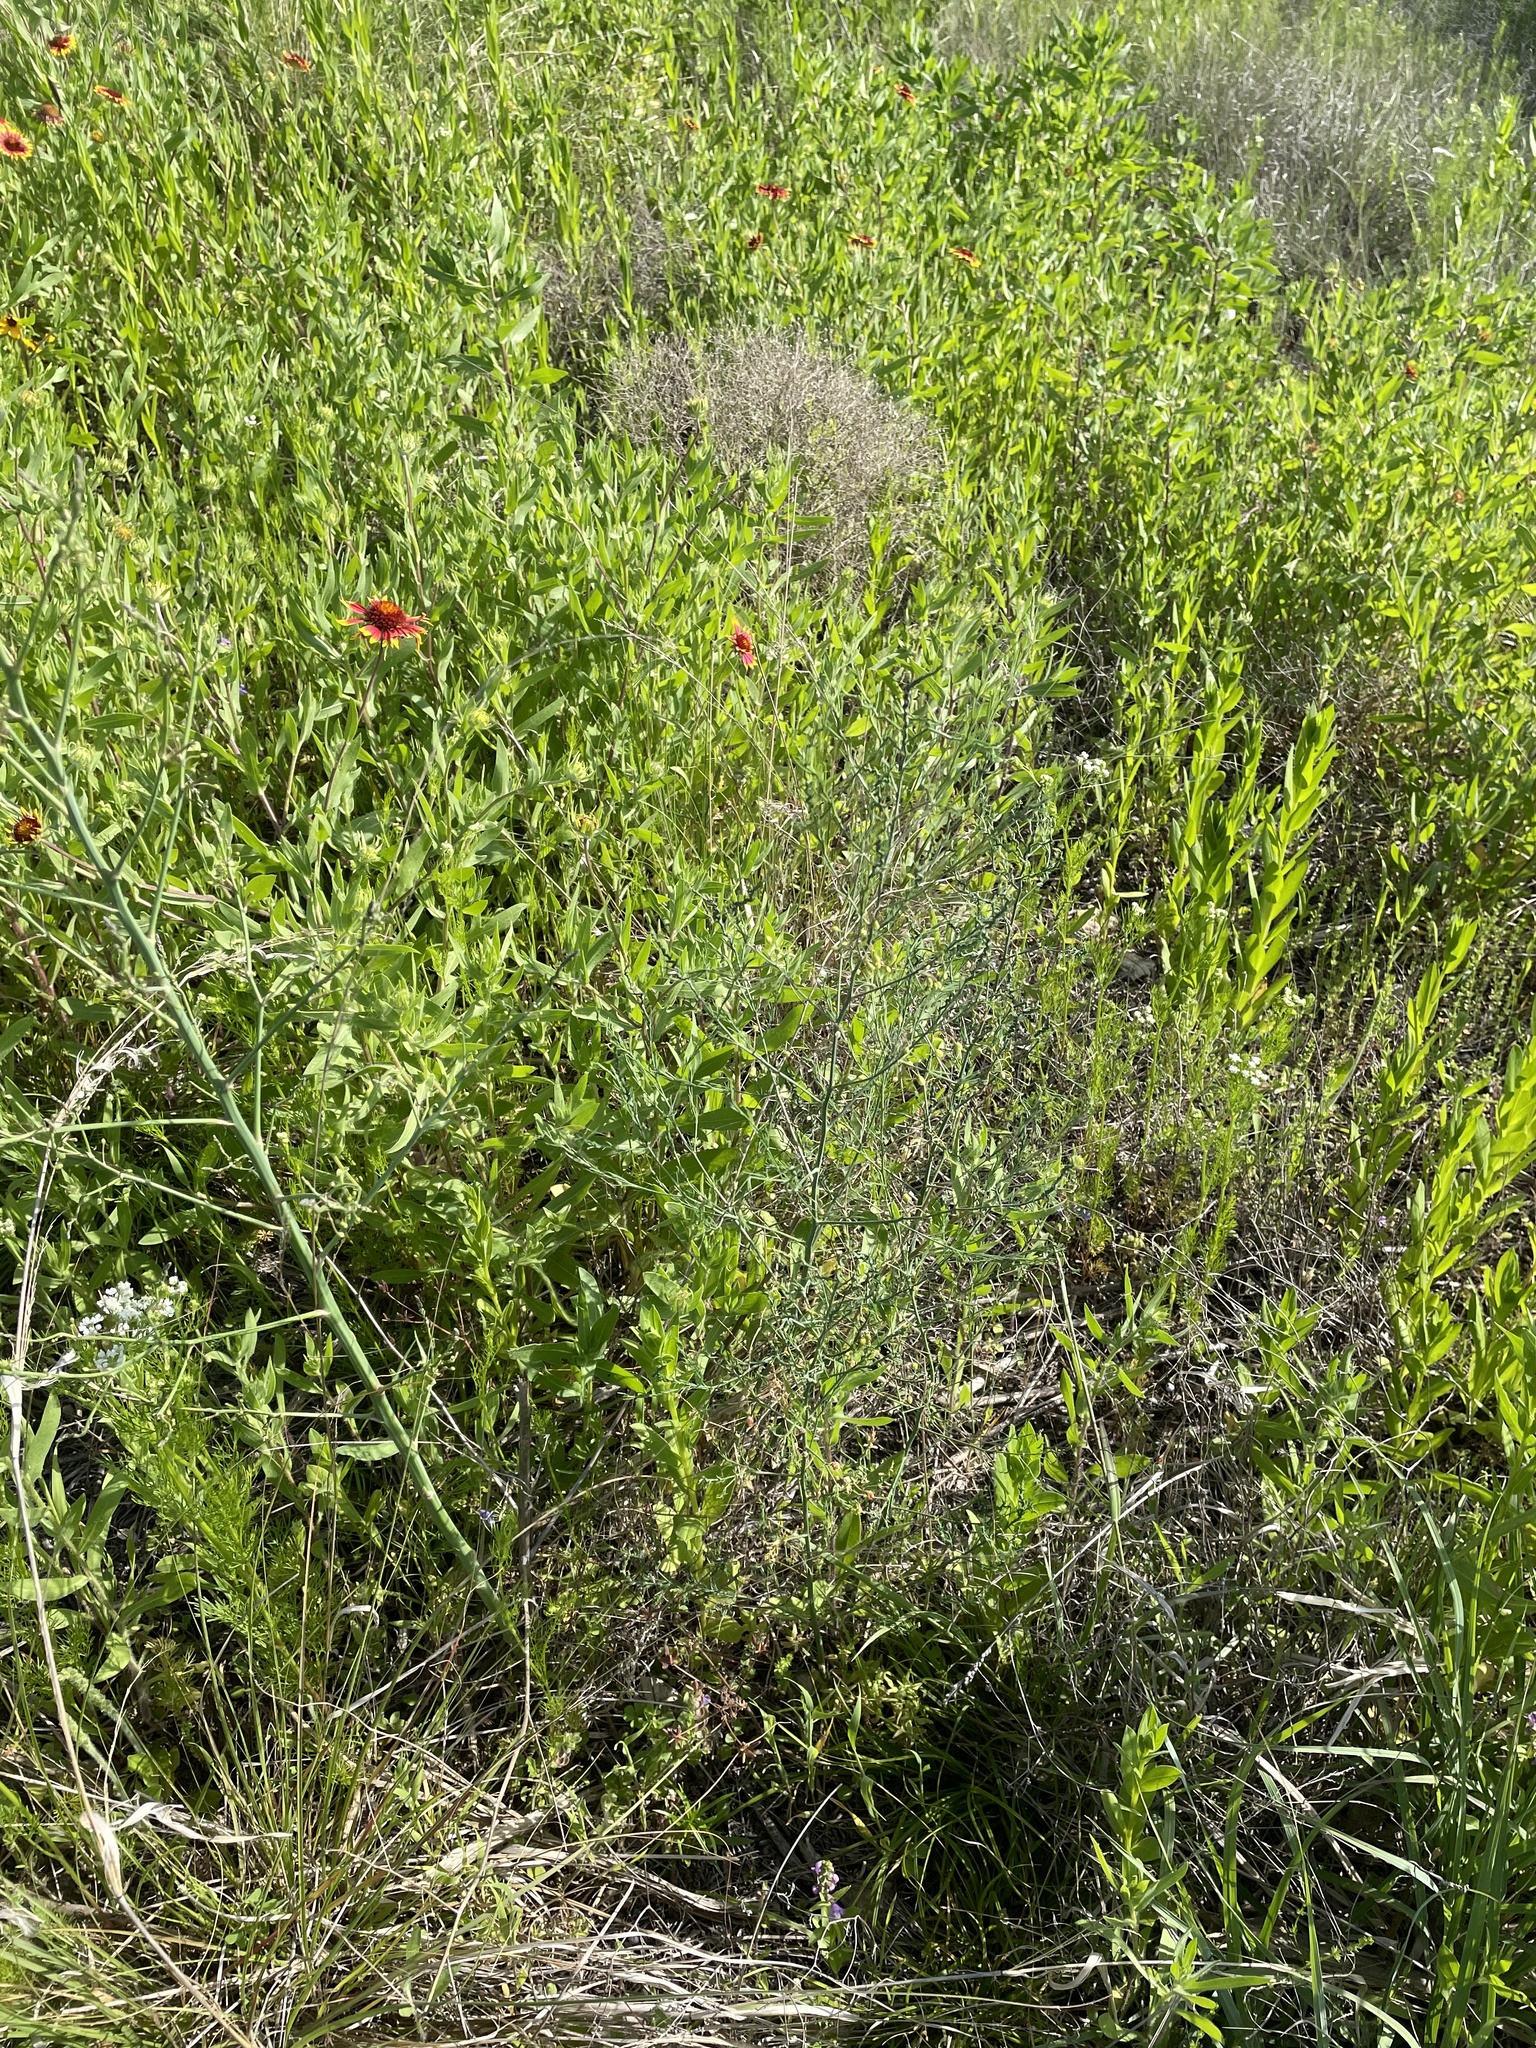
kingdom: Plantae
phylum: Tracheophyta
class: Liliopsida
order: Asparagales
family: Asparagaceae
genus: Asparagus
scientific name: Asparagus officinalis
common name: Garden asparagus
